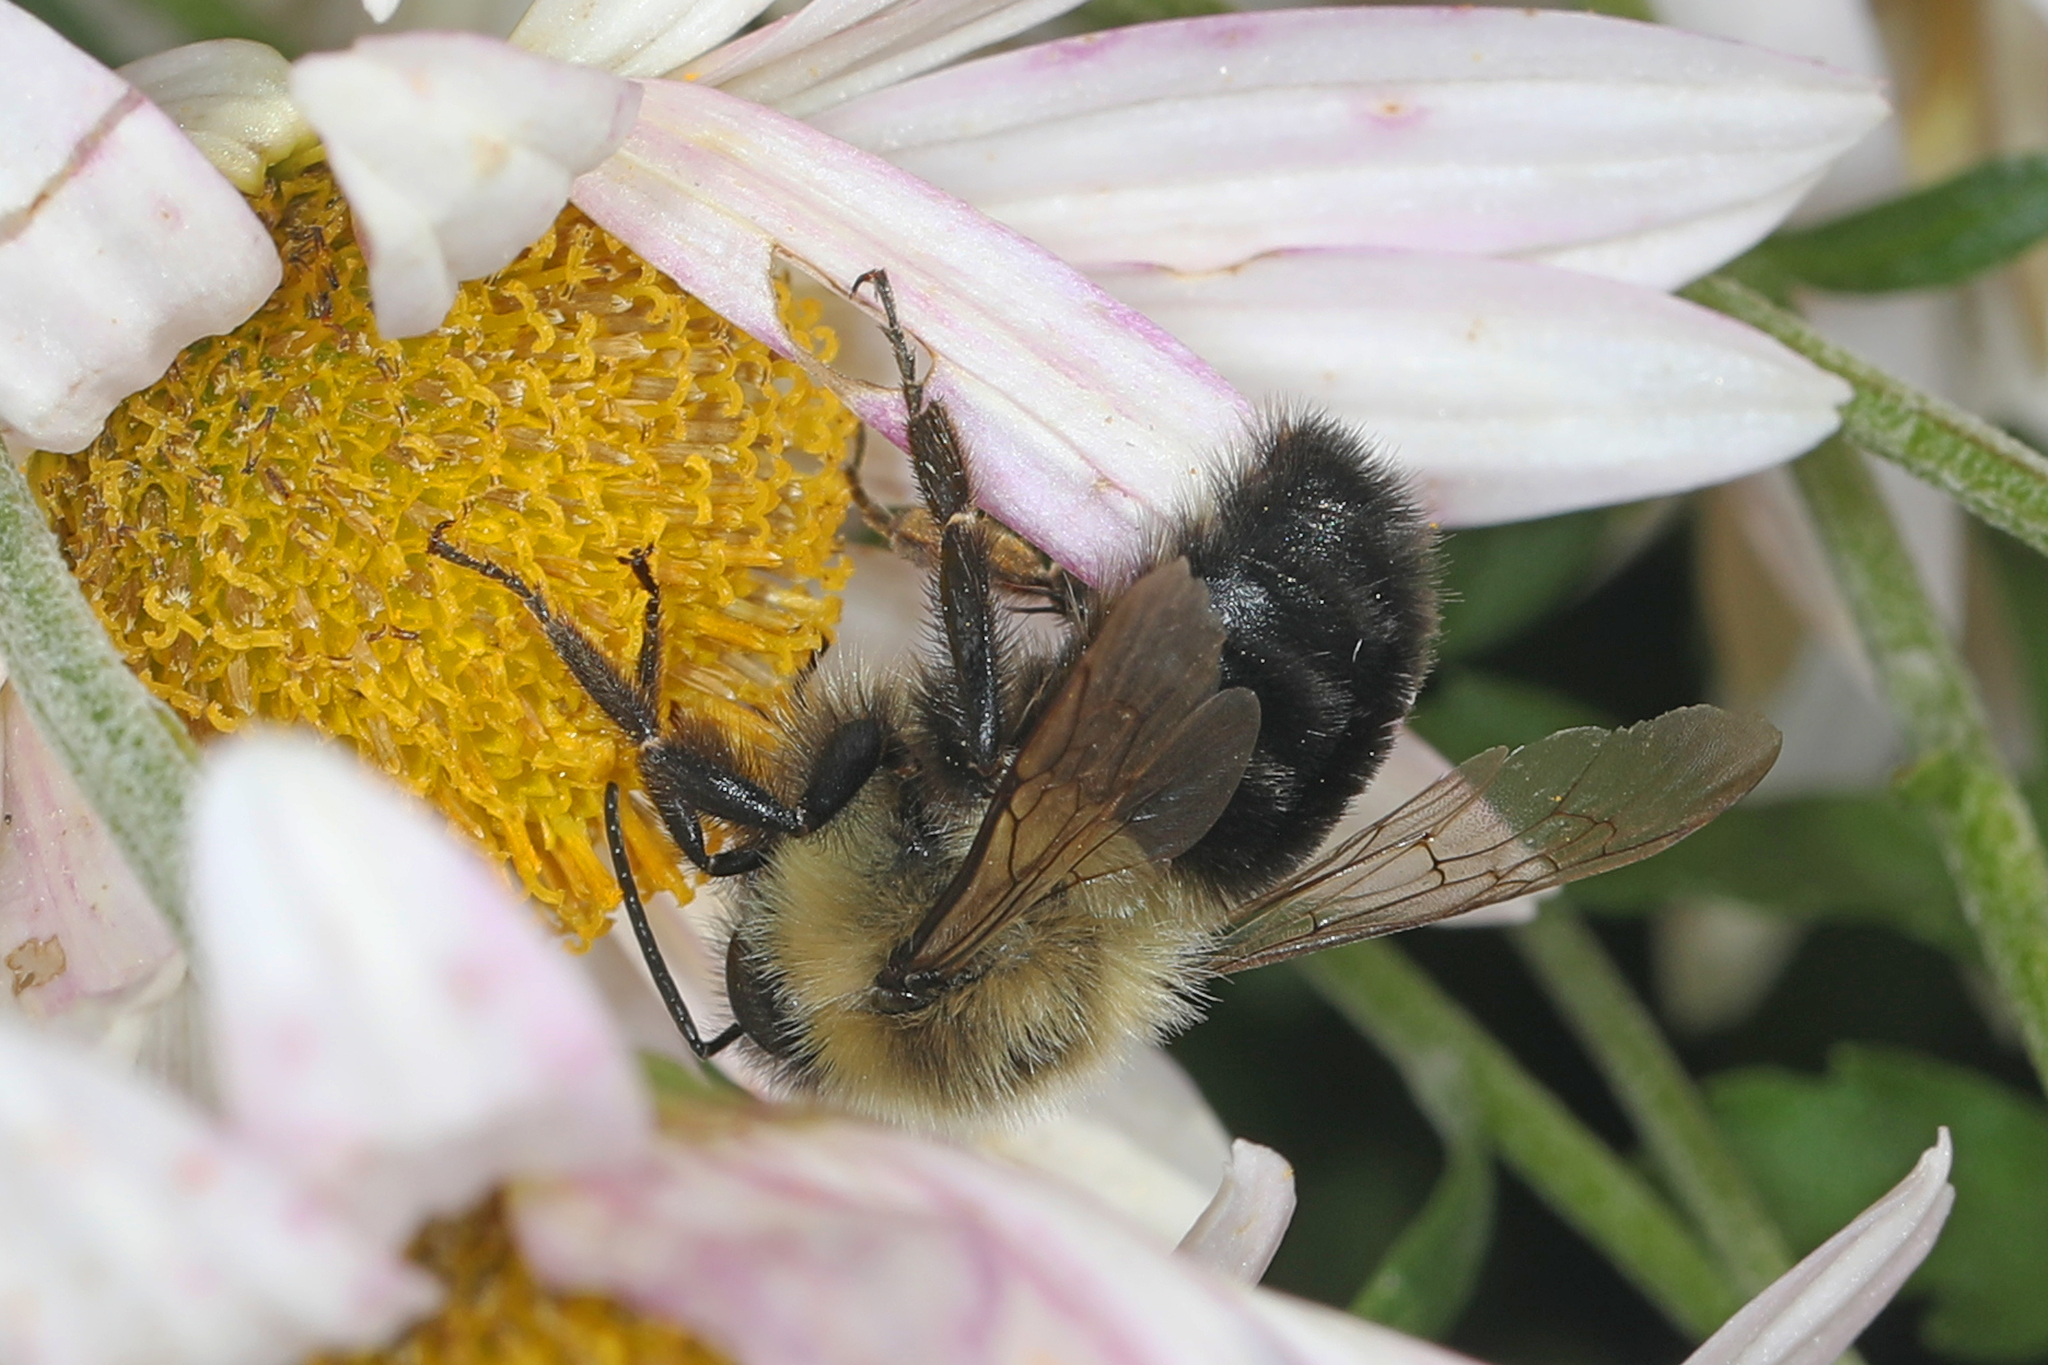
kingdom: Animalia
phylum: Arthropoda
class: Insecta
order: Hymenoptera
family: Apidae
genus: Bombus
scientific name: Bombus impatiens
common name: Common eastern bumble bee
